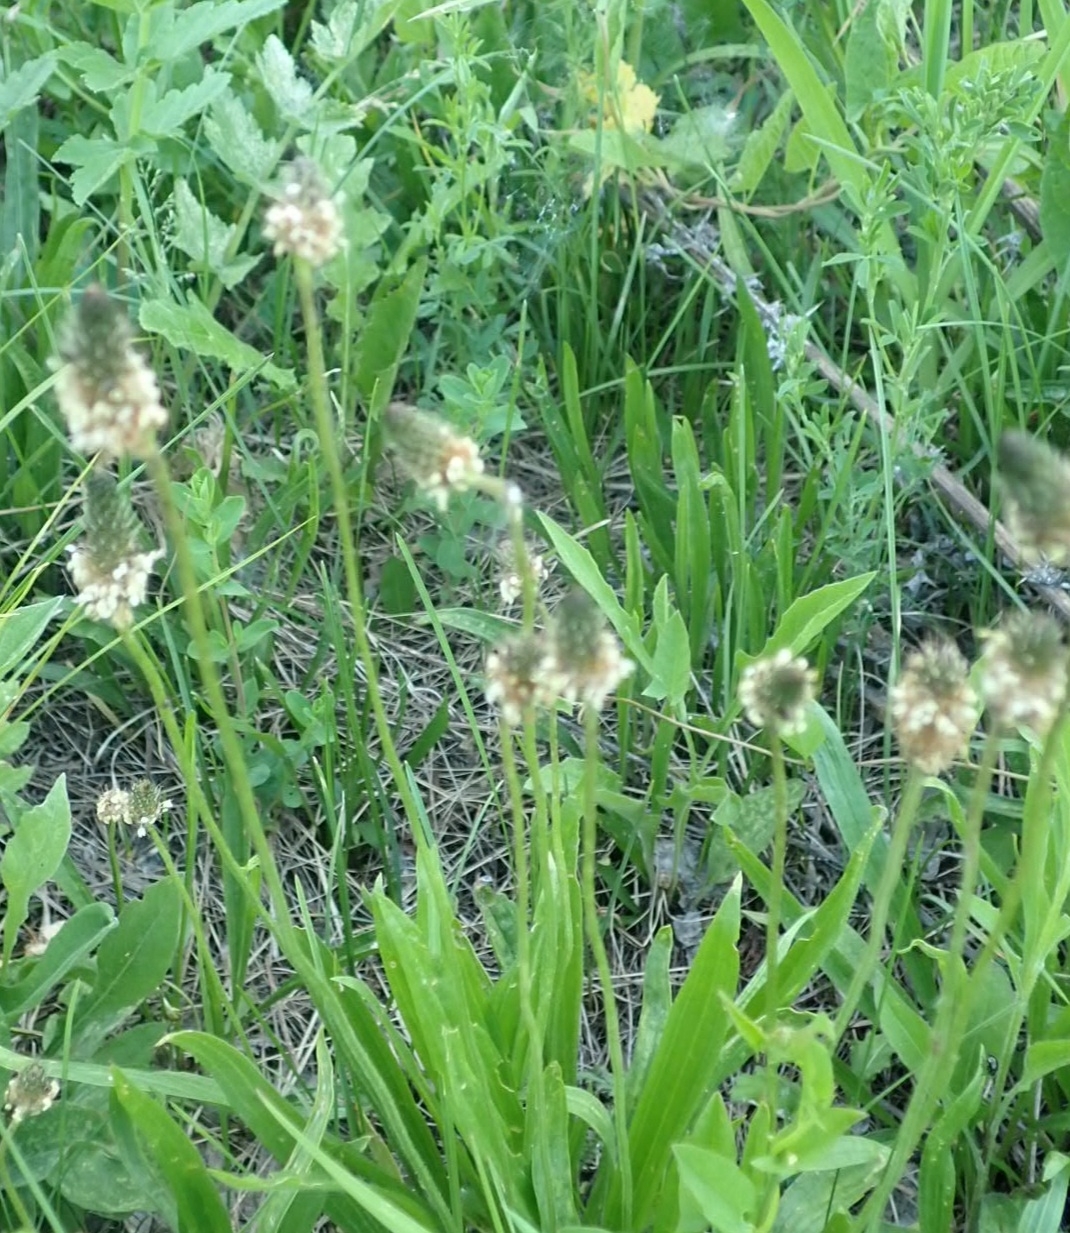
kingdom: Plantae
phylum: Tracheophyta
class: Magnoliopsida
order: Lamiales
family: Plantaginaceae
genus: Plantago
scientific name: Plantago lanceolata
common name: Ribwort plantain
